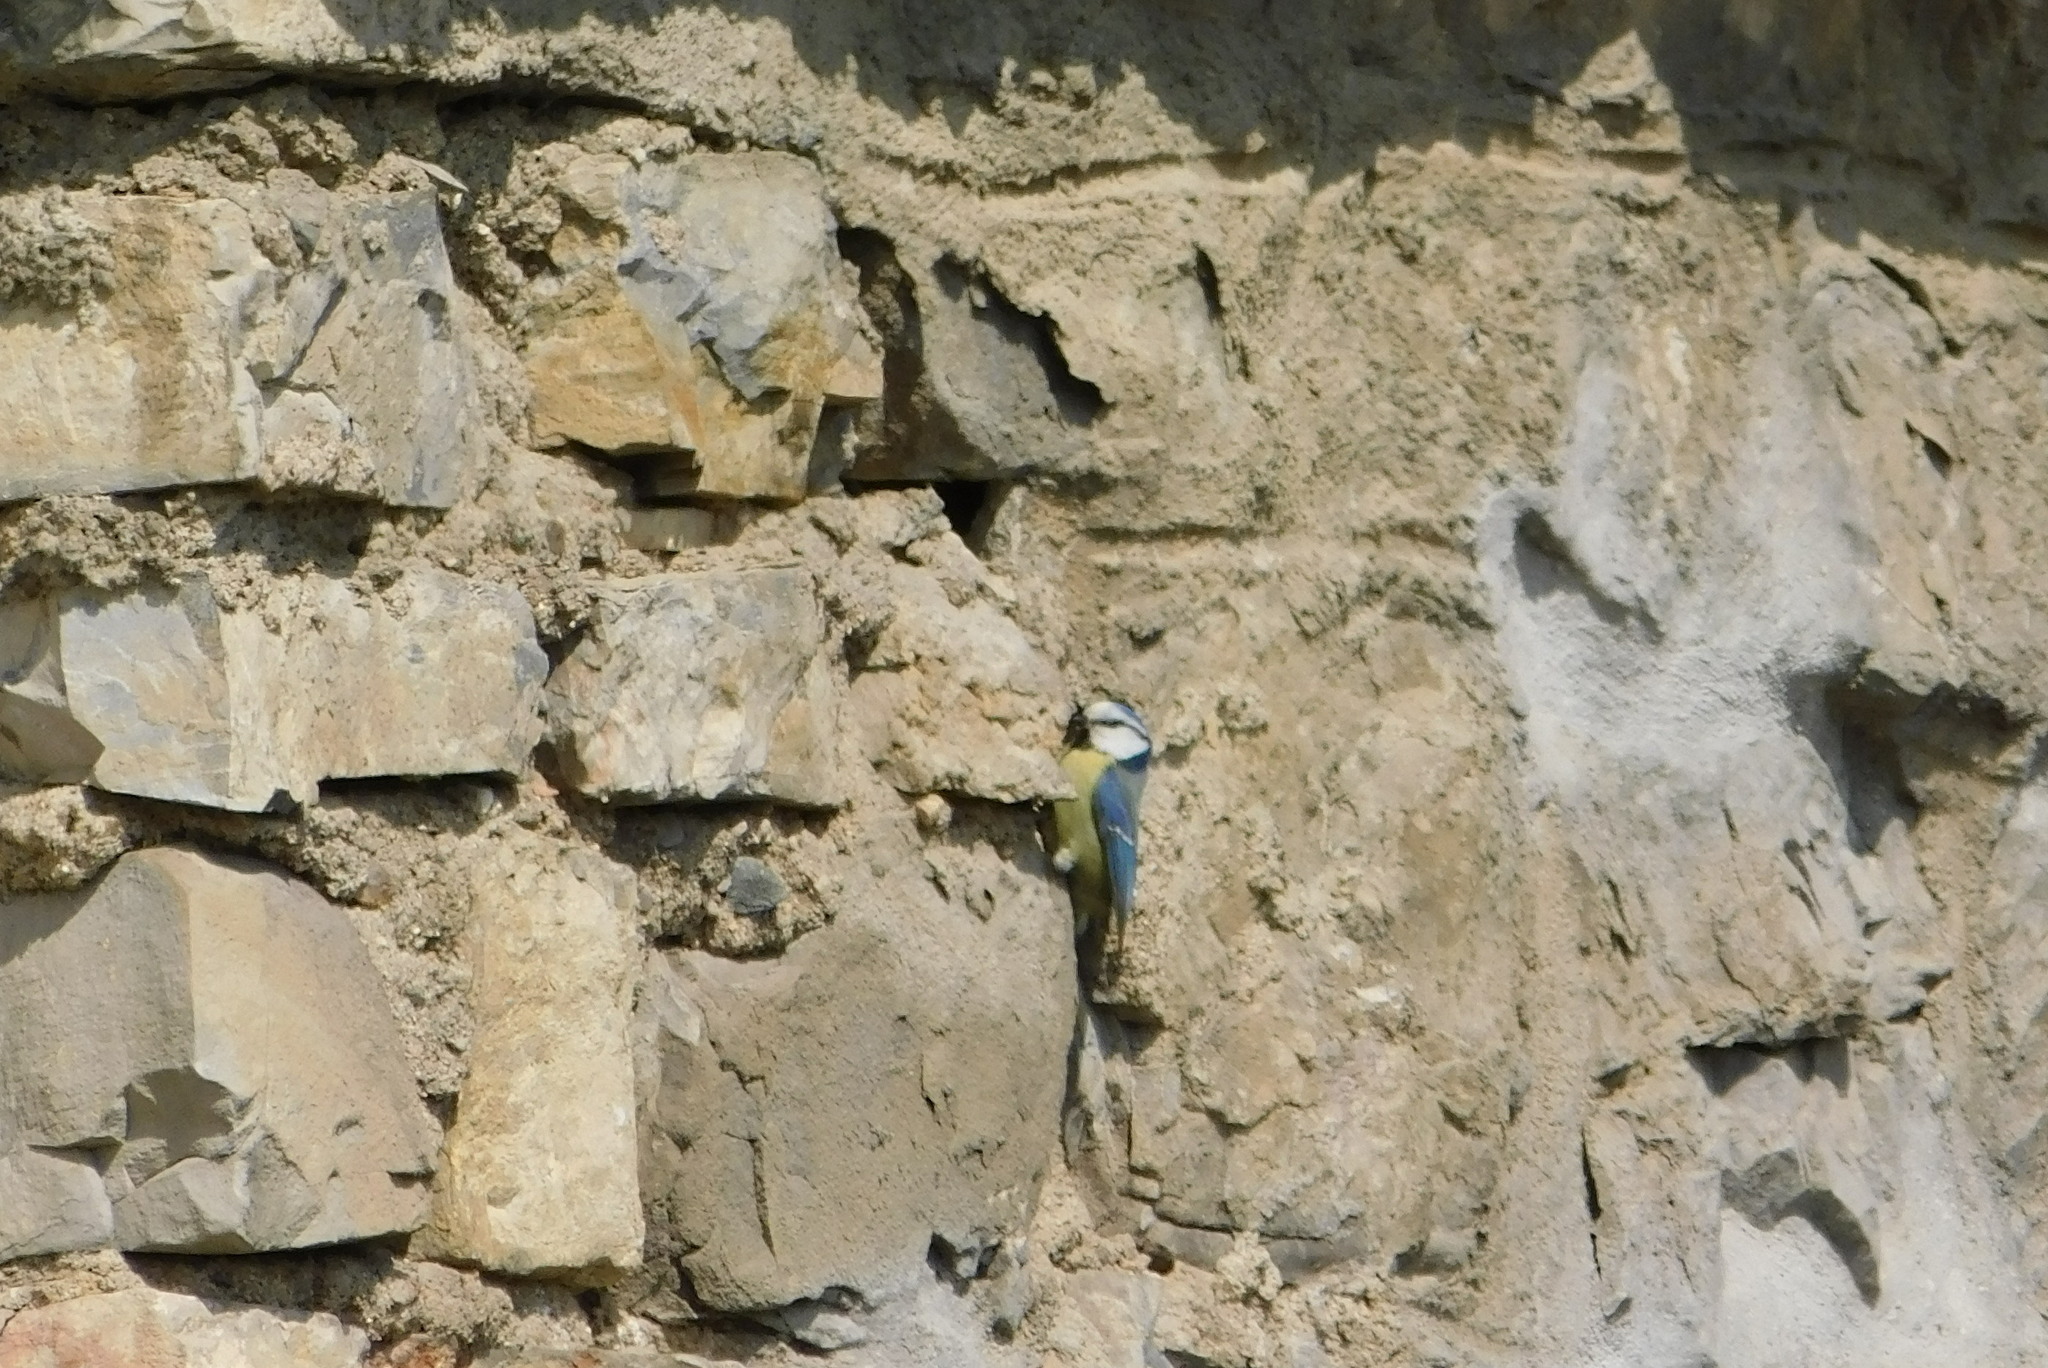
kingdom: Animalia
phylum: Chordata
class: Aves
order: Passeriformes
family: Paridae
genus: Cyanistes
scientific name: Cyanistes caeruleus
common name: Eurasian blue tit
